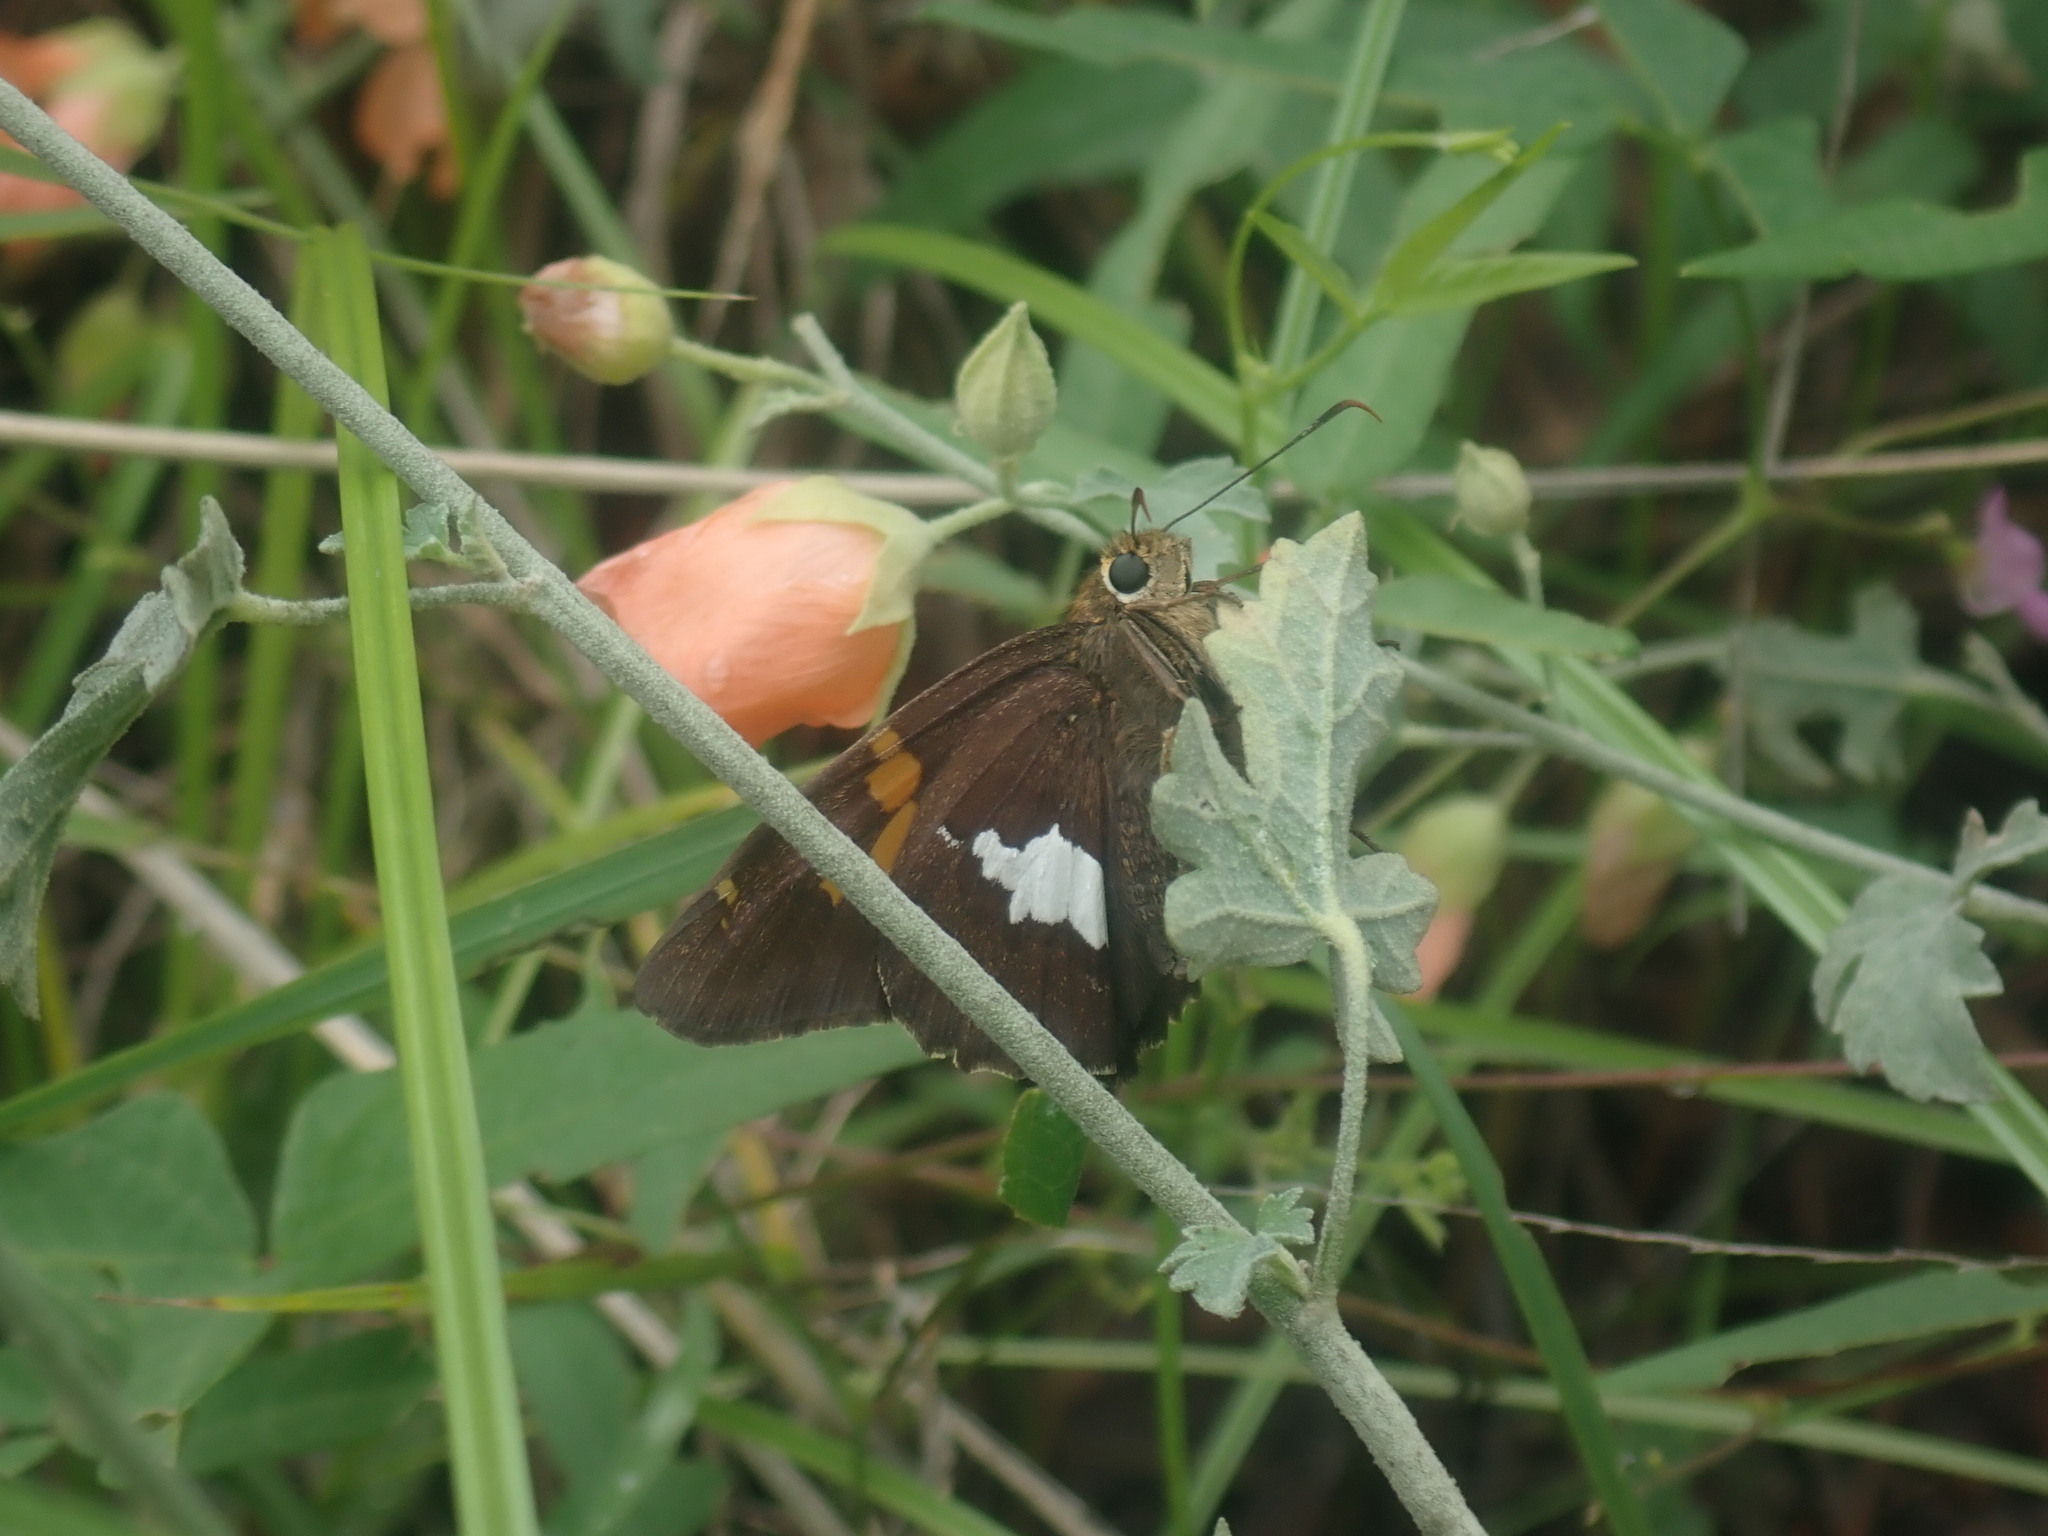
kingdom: Animalia
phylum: Arthropoda
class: Insecta
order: Lepidoptera
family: Hesperiidae
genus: Epargyreus
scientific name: Epargyreus clarus
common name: Silver-spotted skipper
